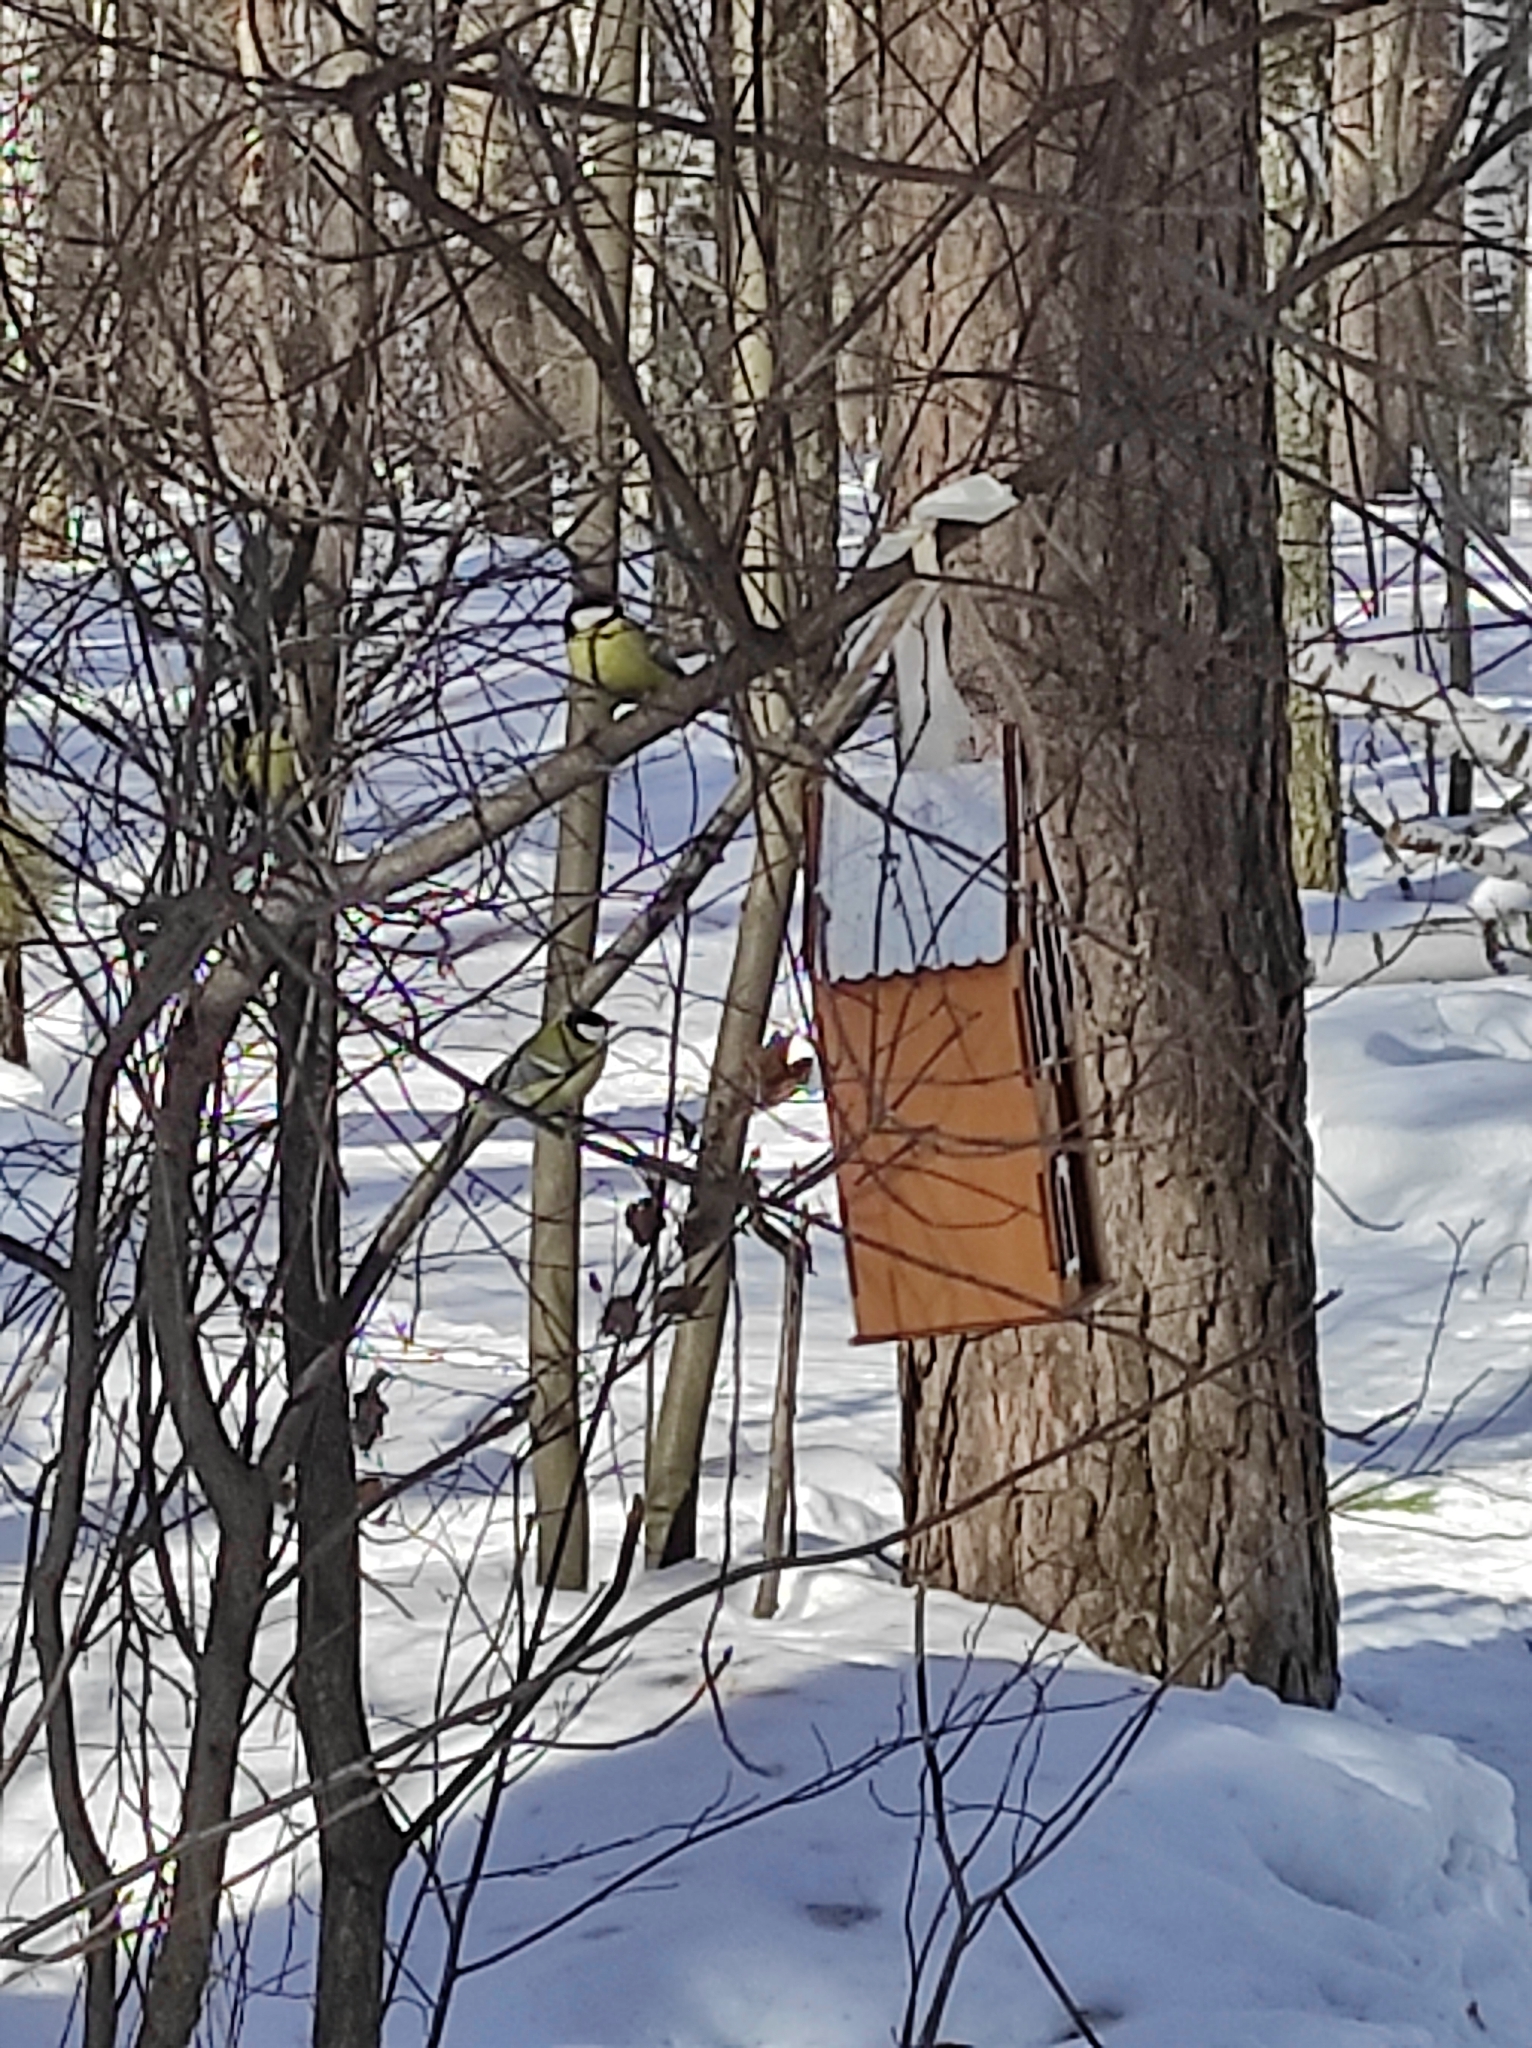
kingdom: Animalia
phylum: Chordata
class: Aves
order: Passeriformes
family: Paridae
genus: Parus
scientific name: Parus major
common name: Great tit
